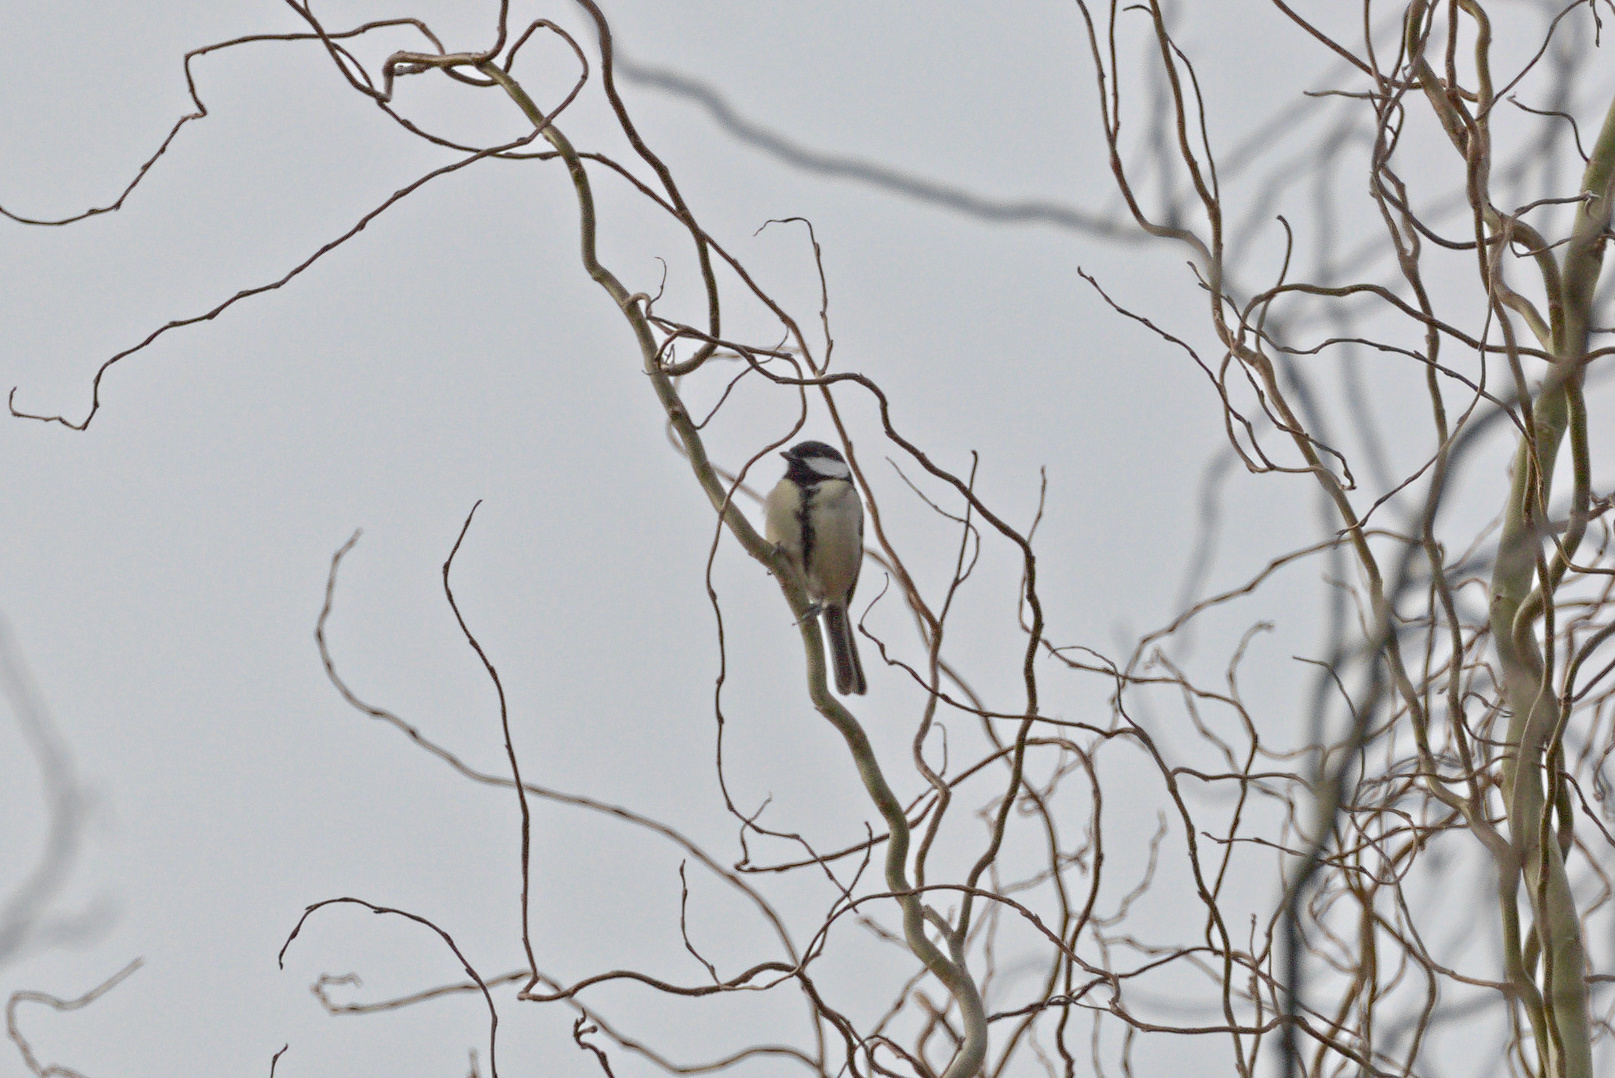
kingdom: Animalia
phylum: Chordata
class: Aves
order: Passeriformes
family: Paridae
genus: Parus
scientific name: Parus major
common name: Great tit
